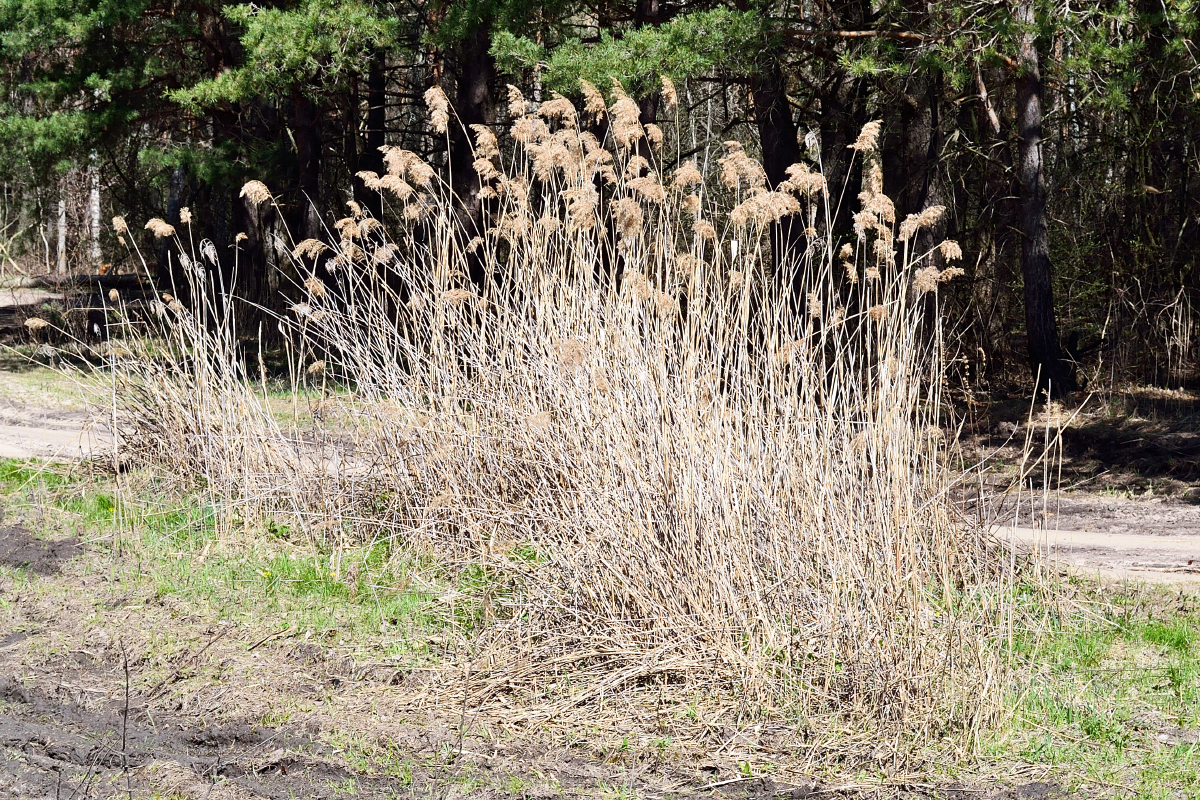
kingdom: Plantae
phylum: Tracheophyta
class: Liliopsida
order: Poales
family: Poaceae
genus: Phragmites
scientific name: Phragmites australis
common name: Common reed
